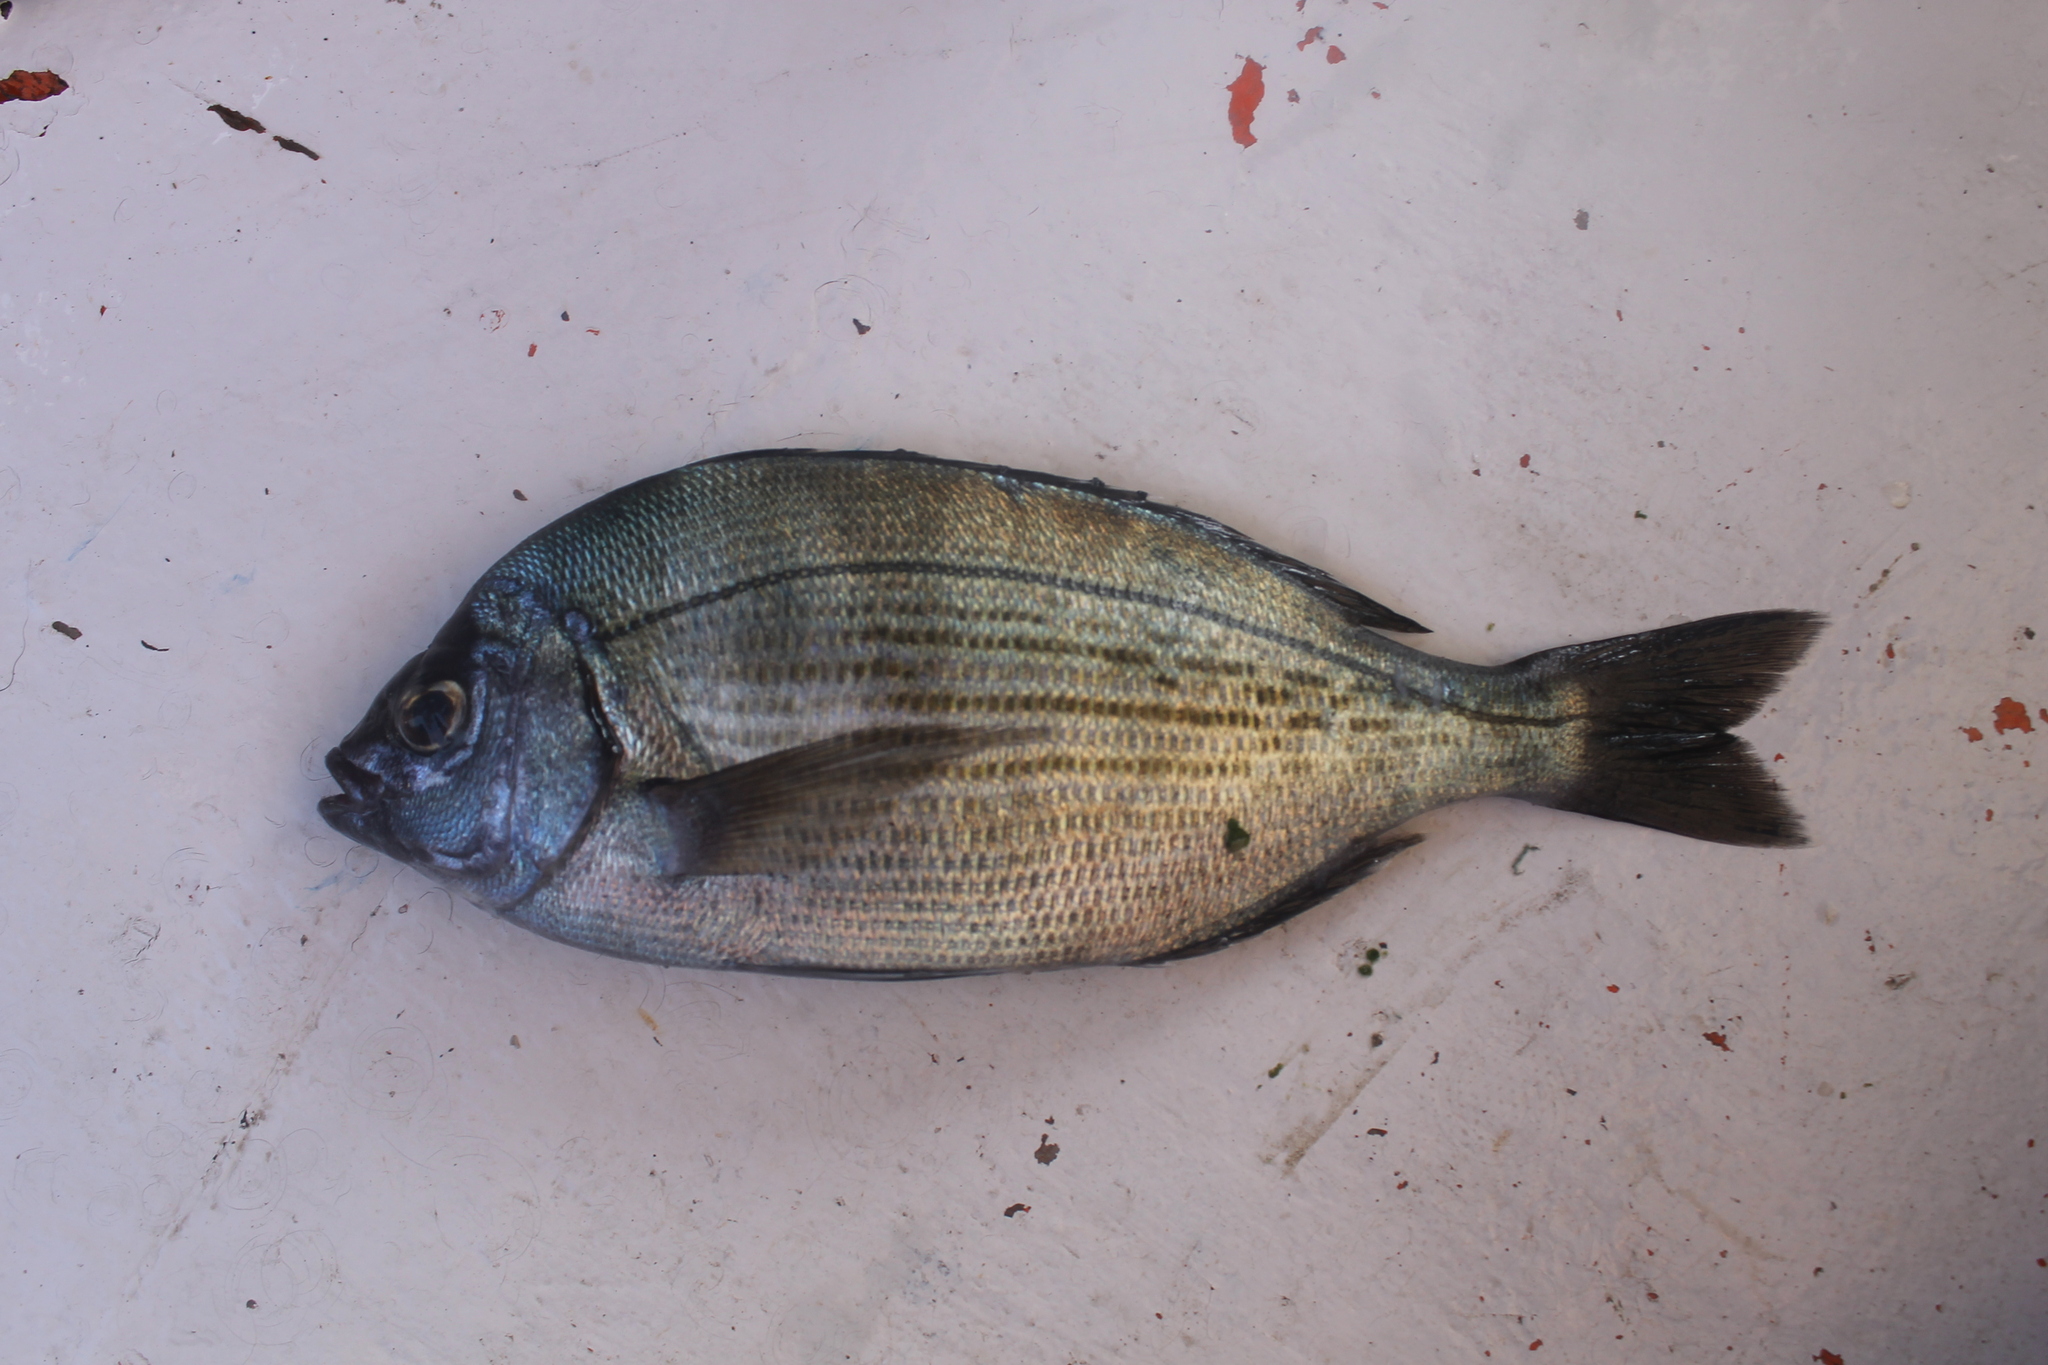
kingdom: Animalia
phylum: Chordata
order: Perciformes
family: Sparidae
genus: Spondyliosoma
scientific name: Spondyliosoma cantharus
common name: Black seabream
